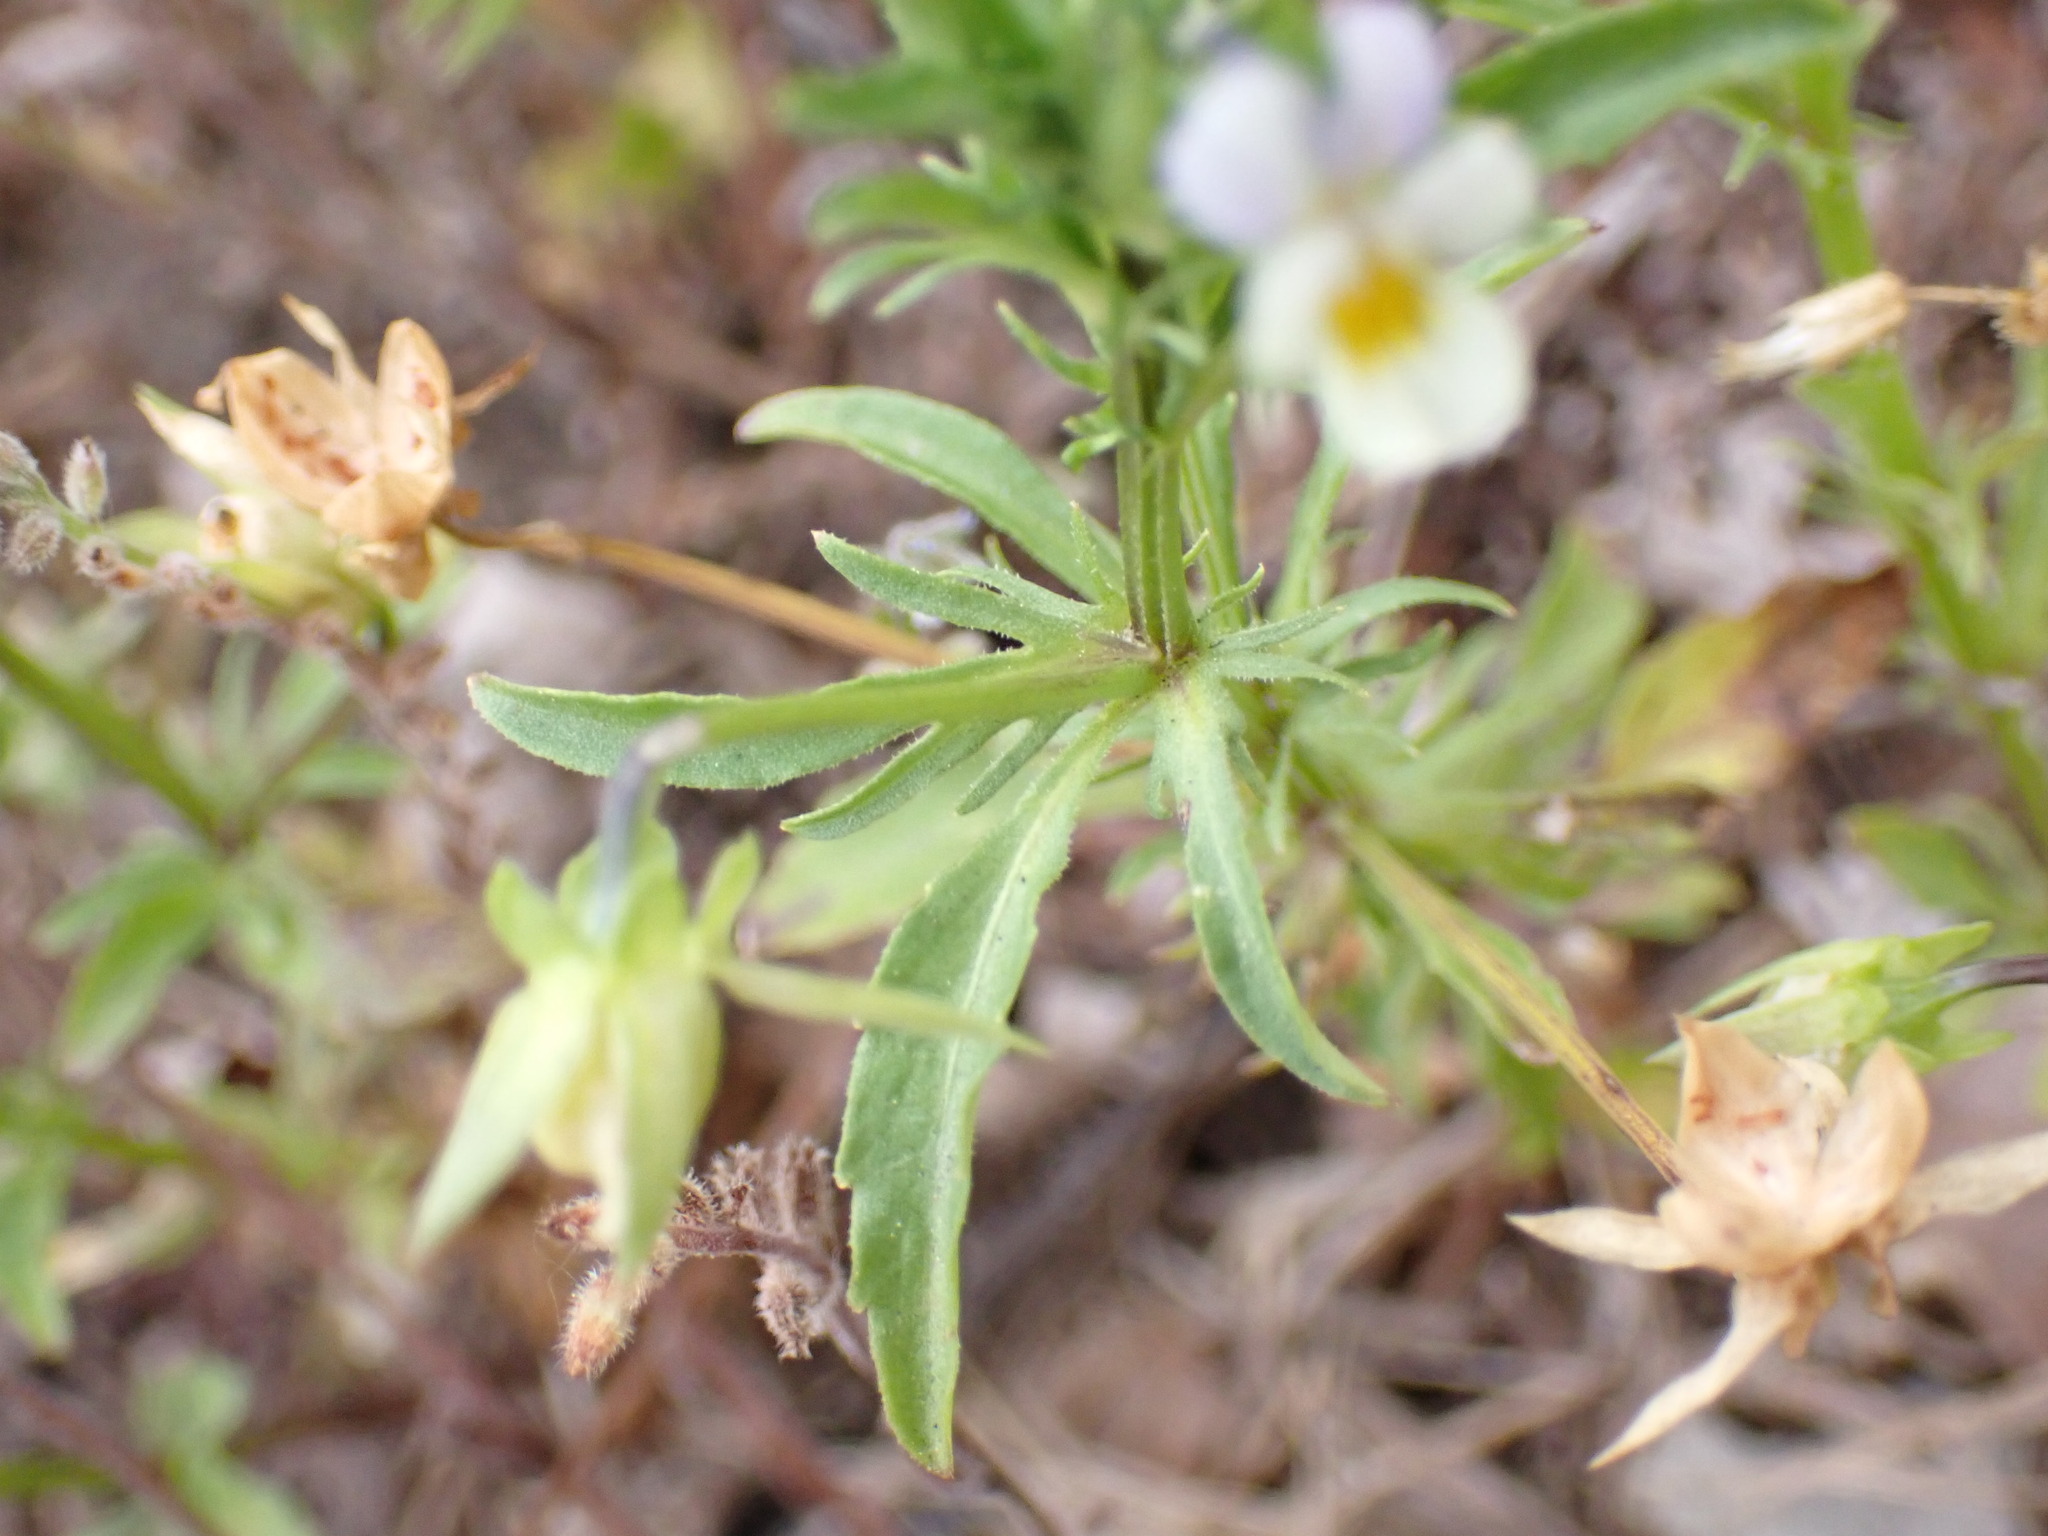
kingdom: Plantae
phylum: Tracheophyta
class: Magnoliopsida
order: Malpighiales
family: Violaceae
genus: Viola
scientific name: Viola arvensis
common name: Field pansy
